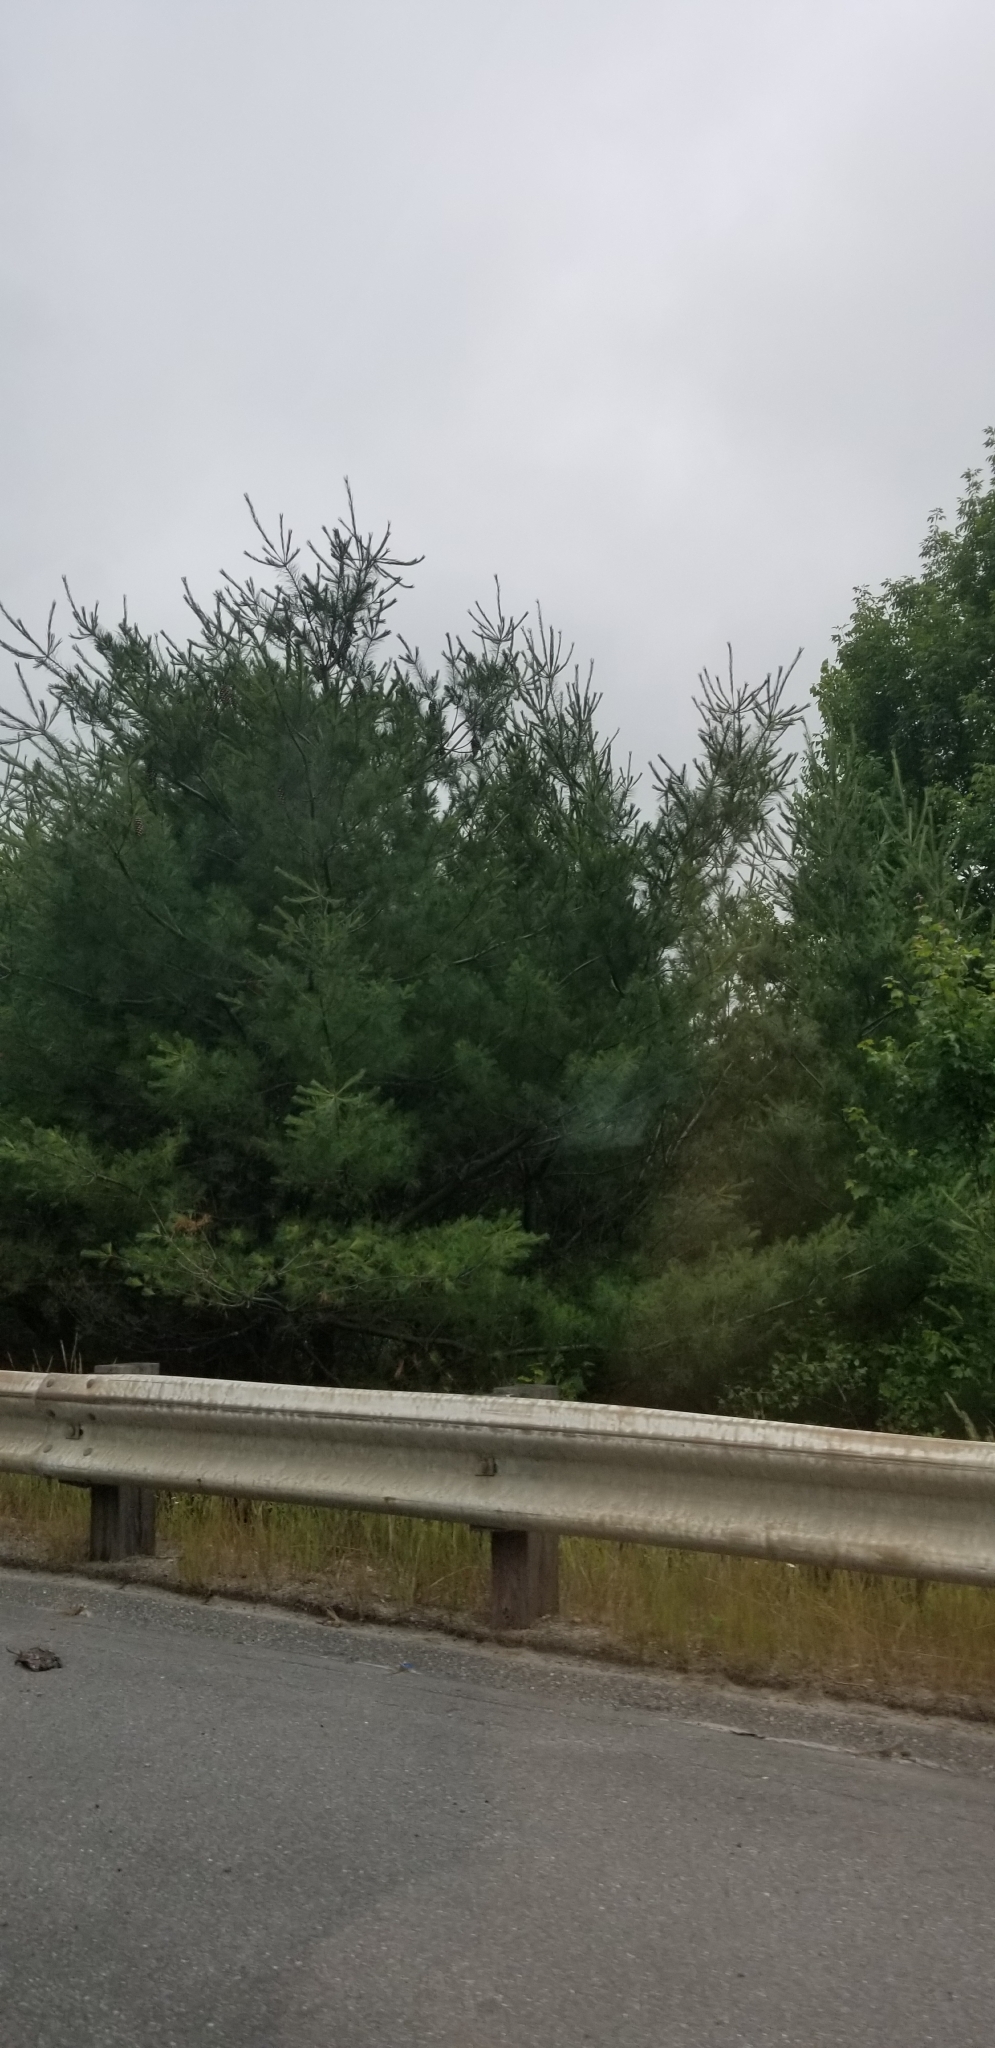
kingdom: Plantae
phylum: Tracheophyta
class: Pinopsida
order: Pinales
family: Pinaceae
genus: Pinus
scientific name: Pinus strobus
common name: Weymouth pine
